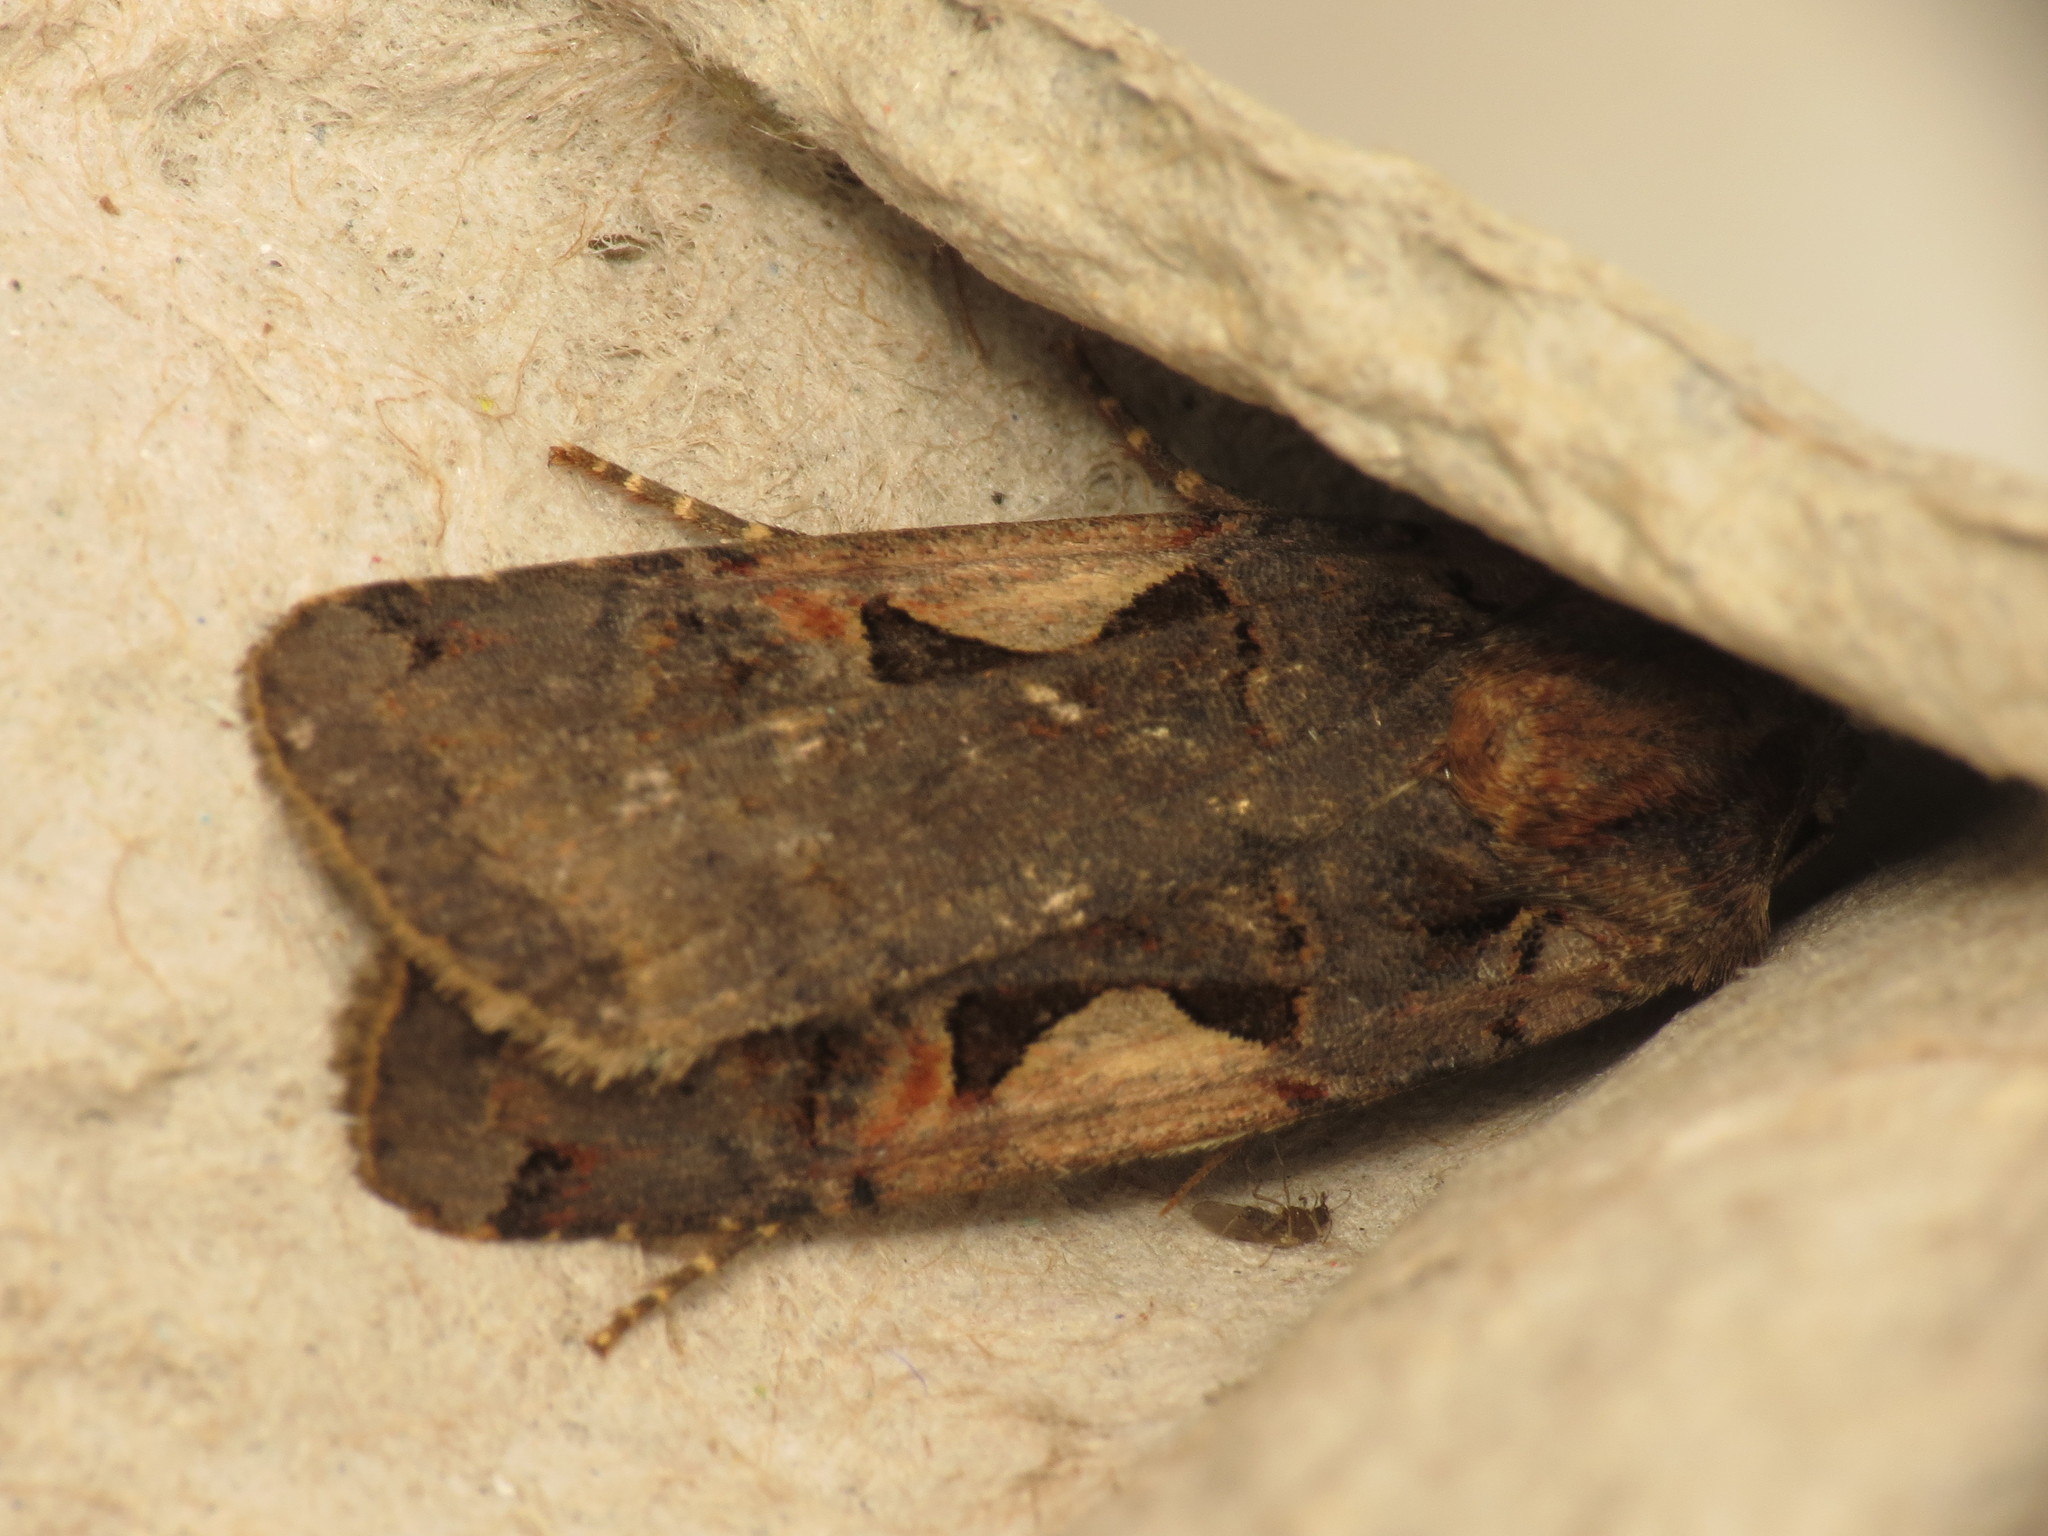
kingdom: Animalia
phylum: Arthropoda
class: Insecta
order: Lepidoptera
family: Noctuidae
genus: Xestia
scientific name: Xestia c-nigrum
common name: Setaceous hebrew character
